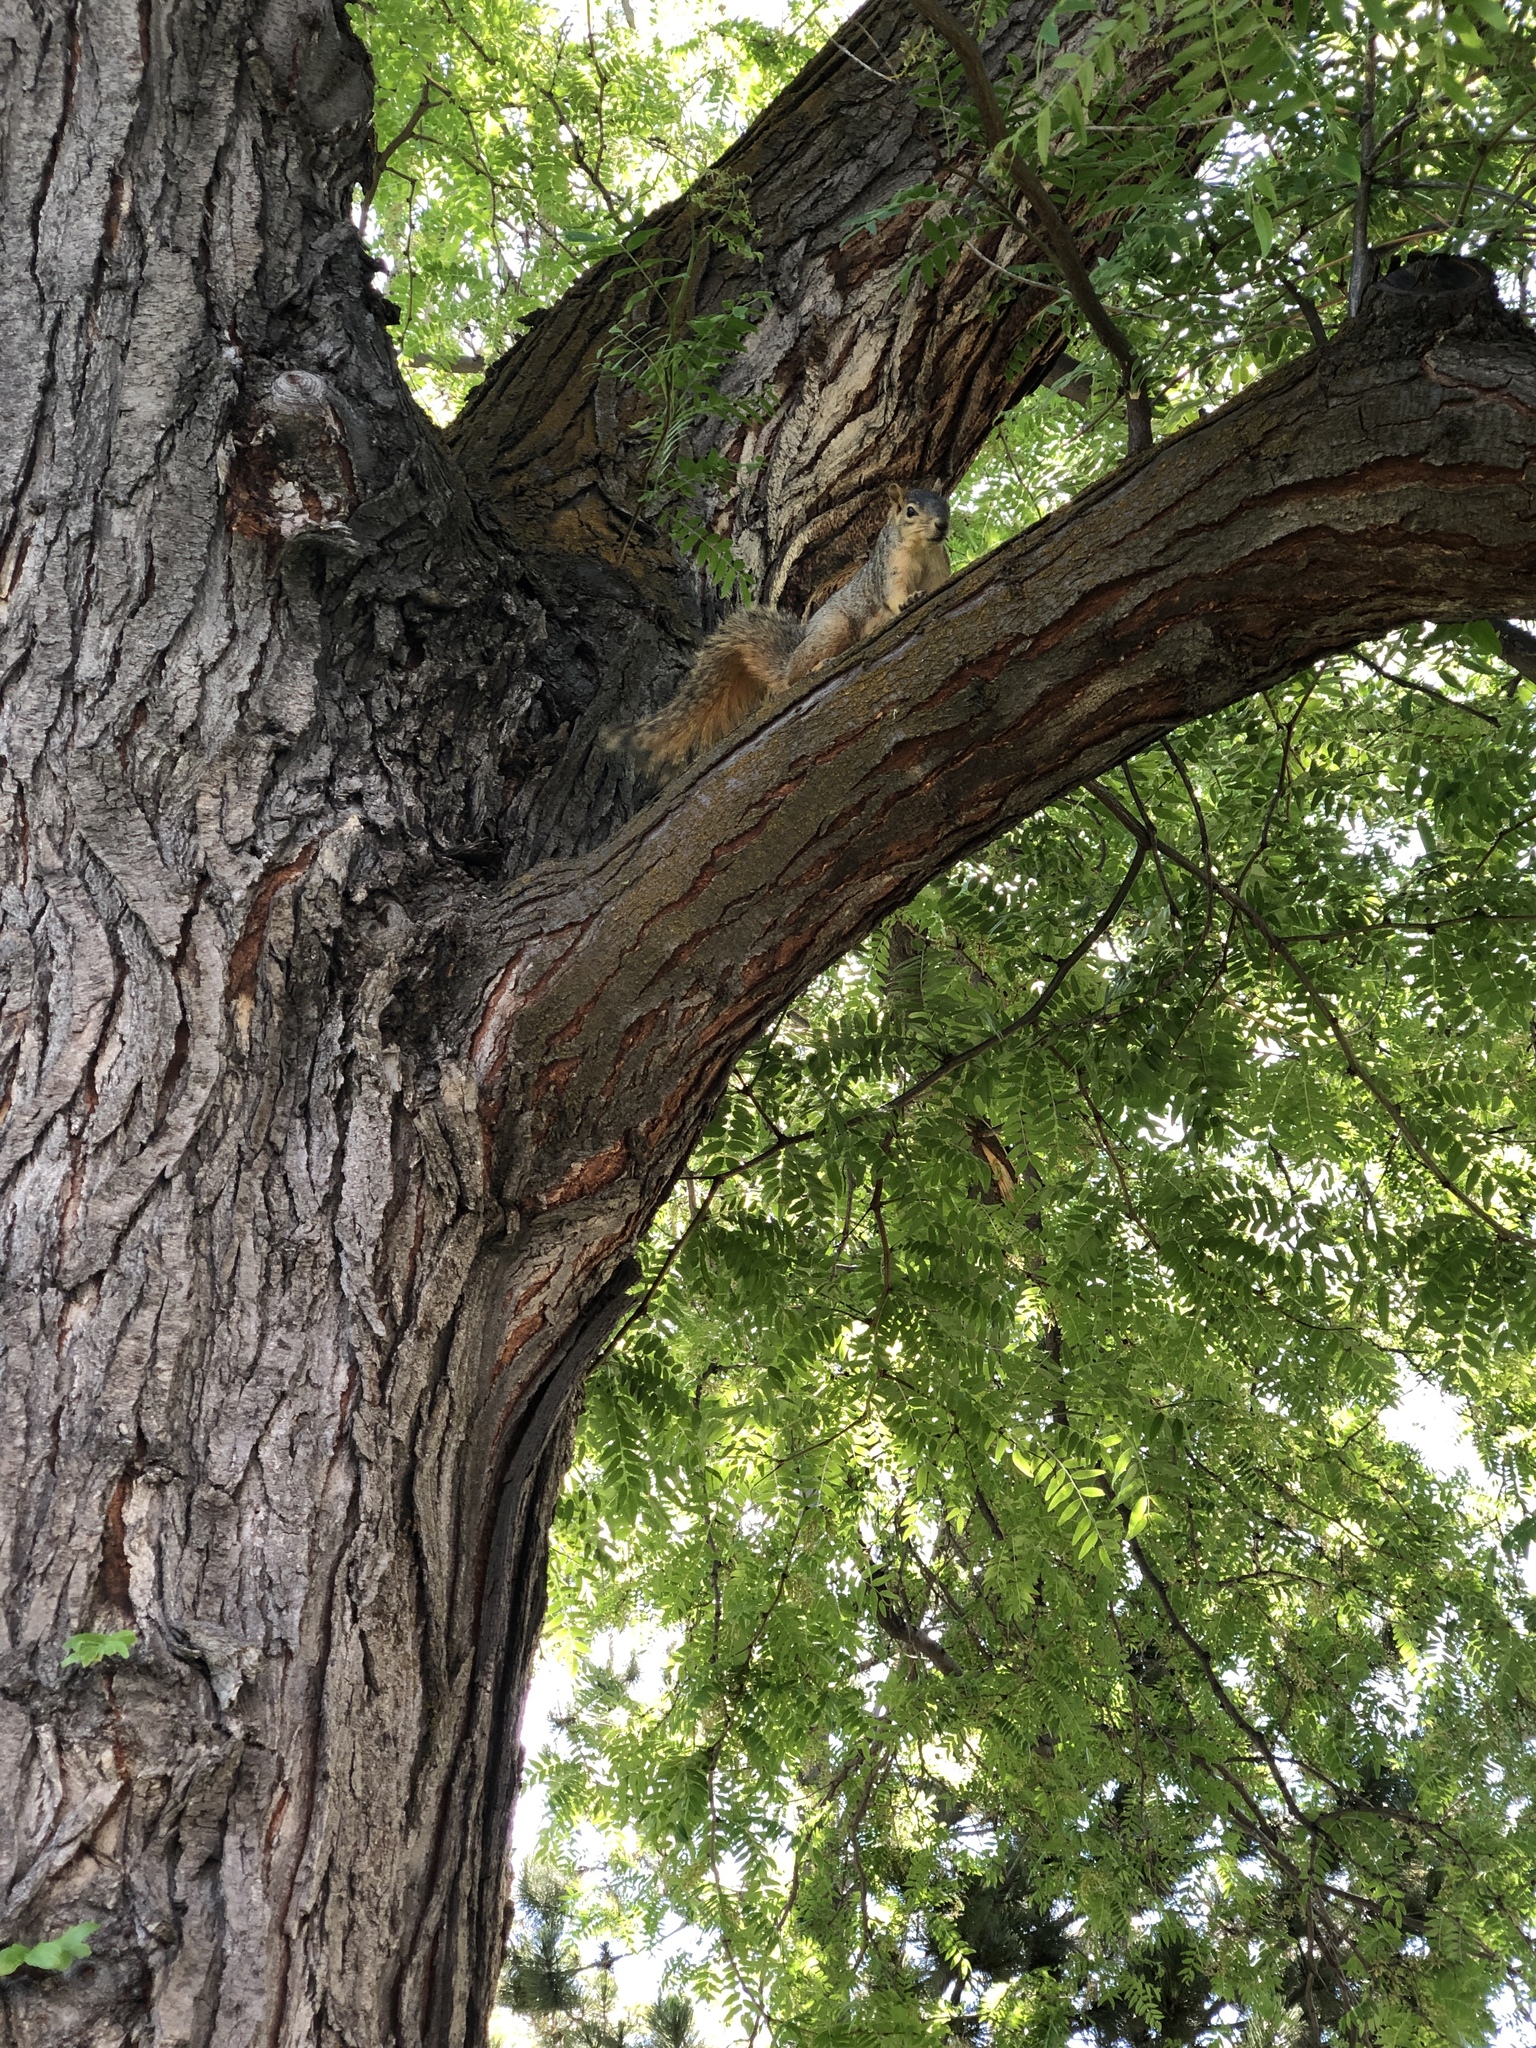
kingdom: Animalia
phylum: Chordata
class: Mammalia
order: Rodentia
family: Sciuridae
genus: Sciurus
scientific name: Sciurus niger
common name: Fox squirrel
